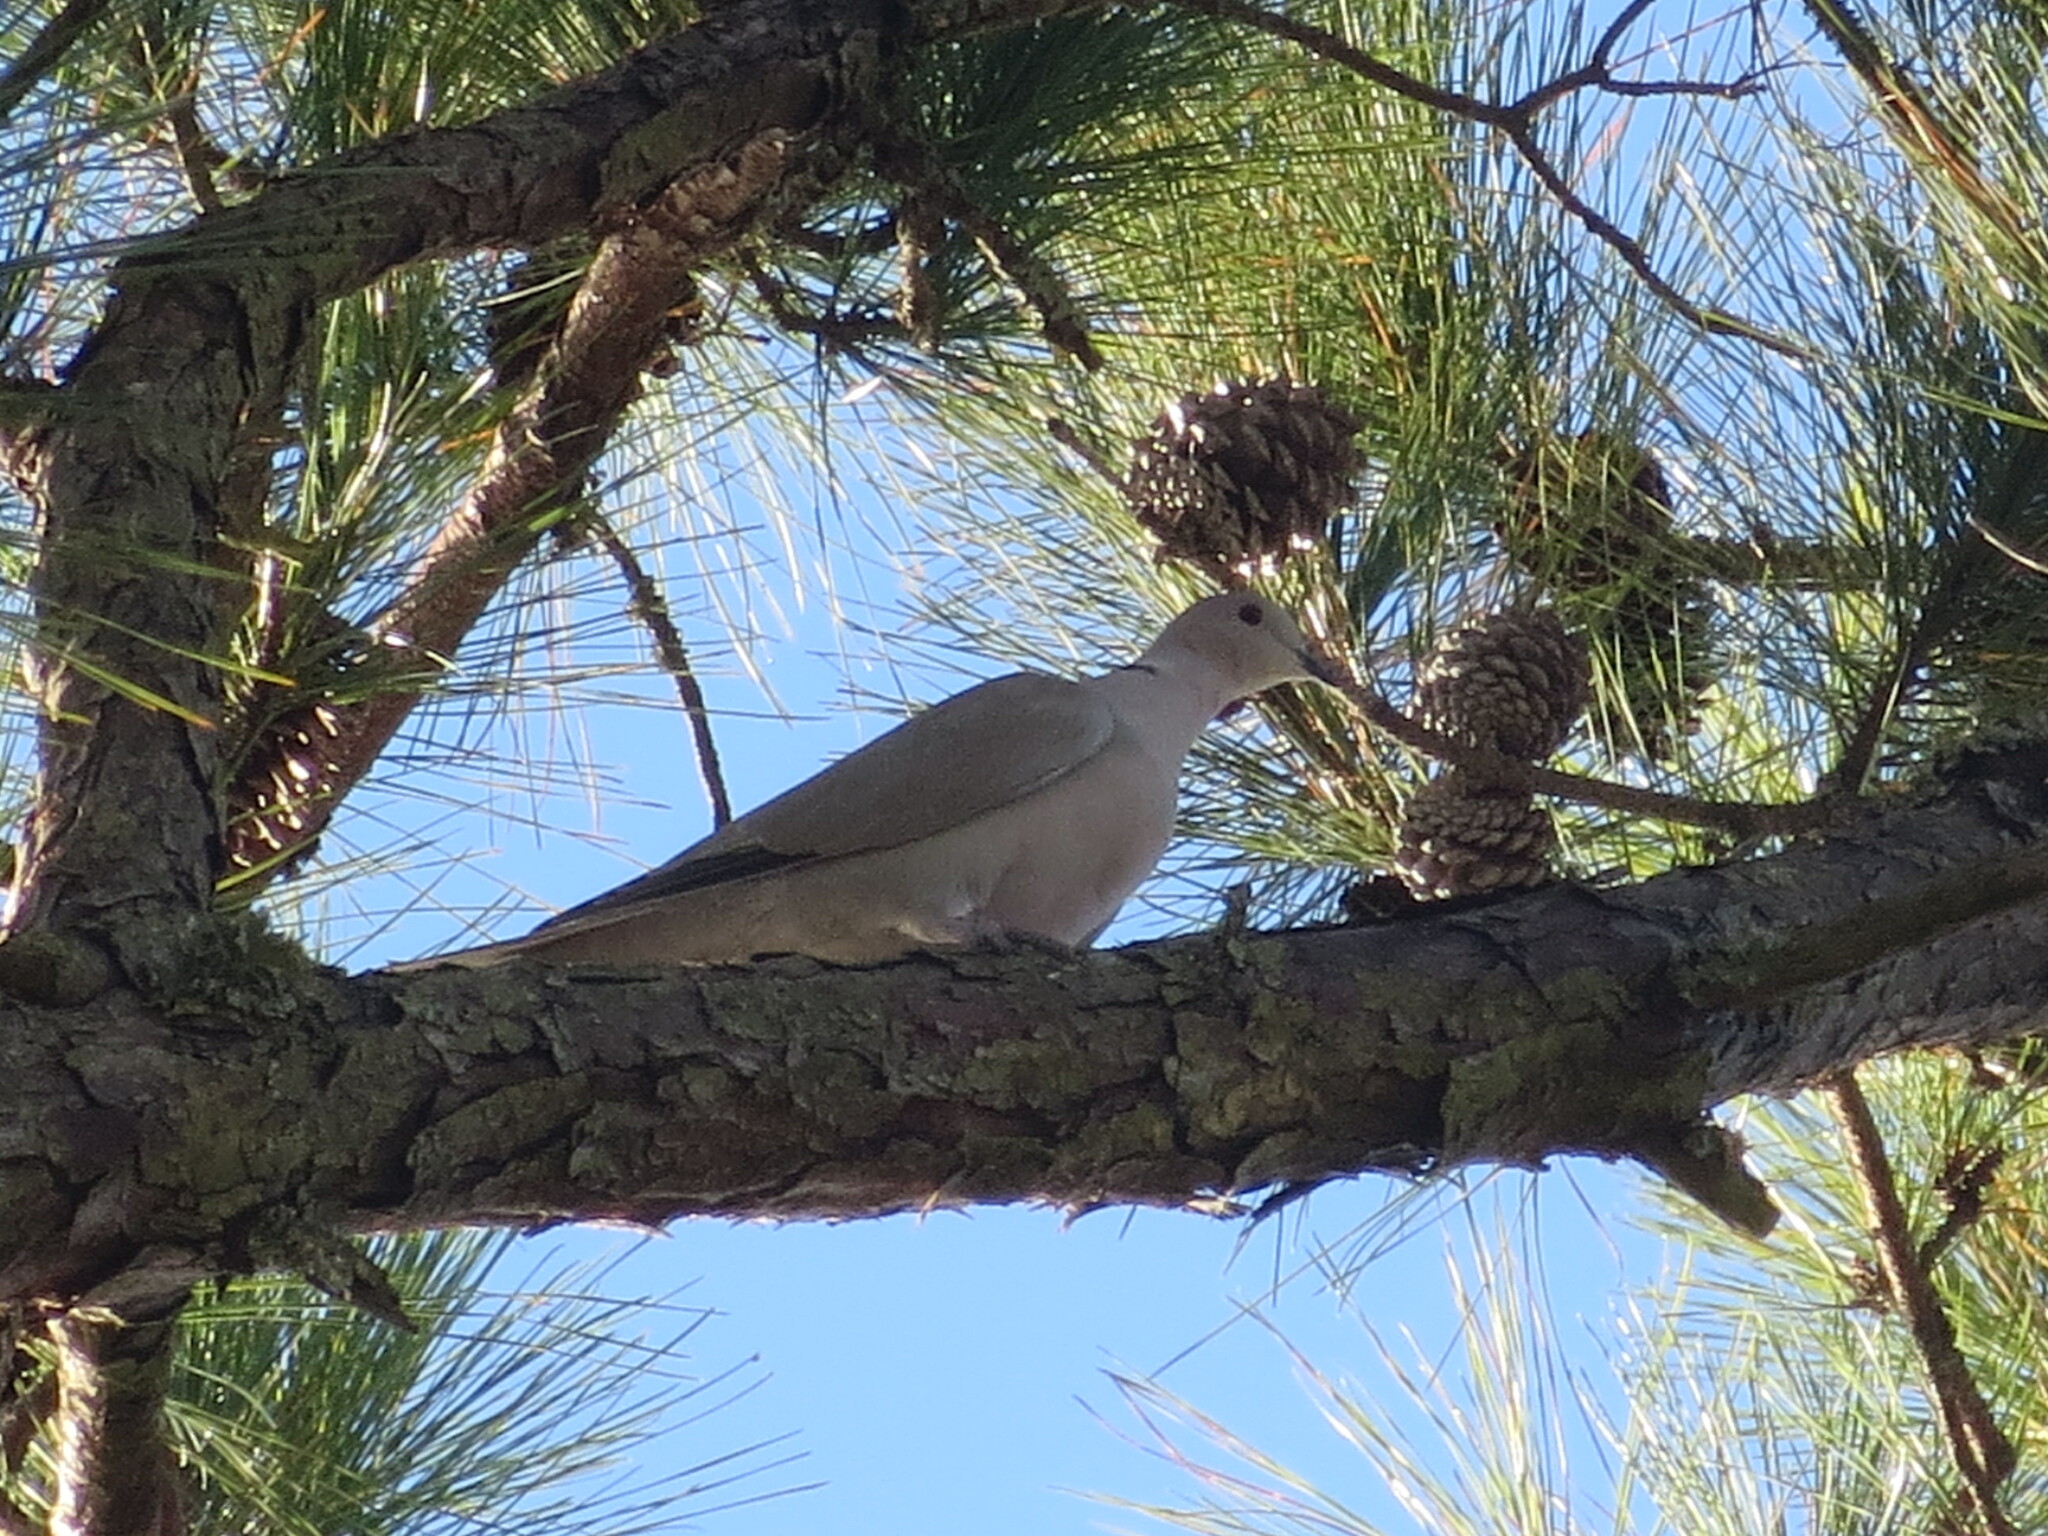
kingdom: Animalia
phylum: Chordata
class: Aves
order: Columbiformes
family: Columbidae
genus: Streptopelia
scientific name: Streptopelia decaocto
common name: Eurasian collared dove
